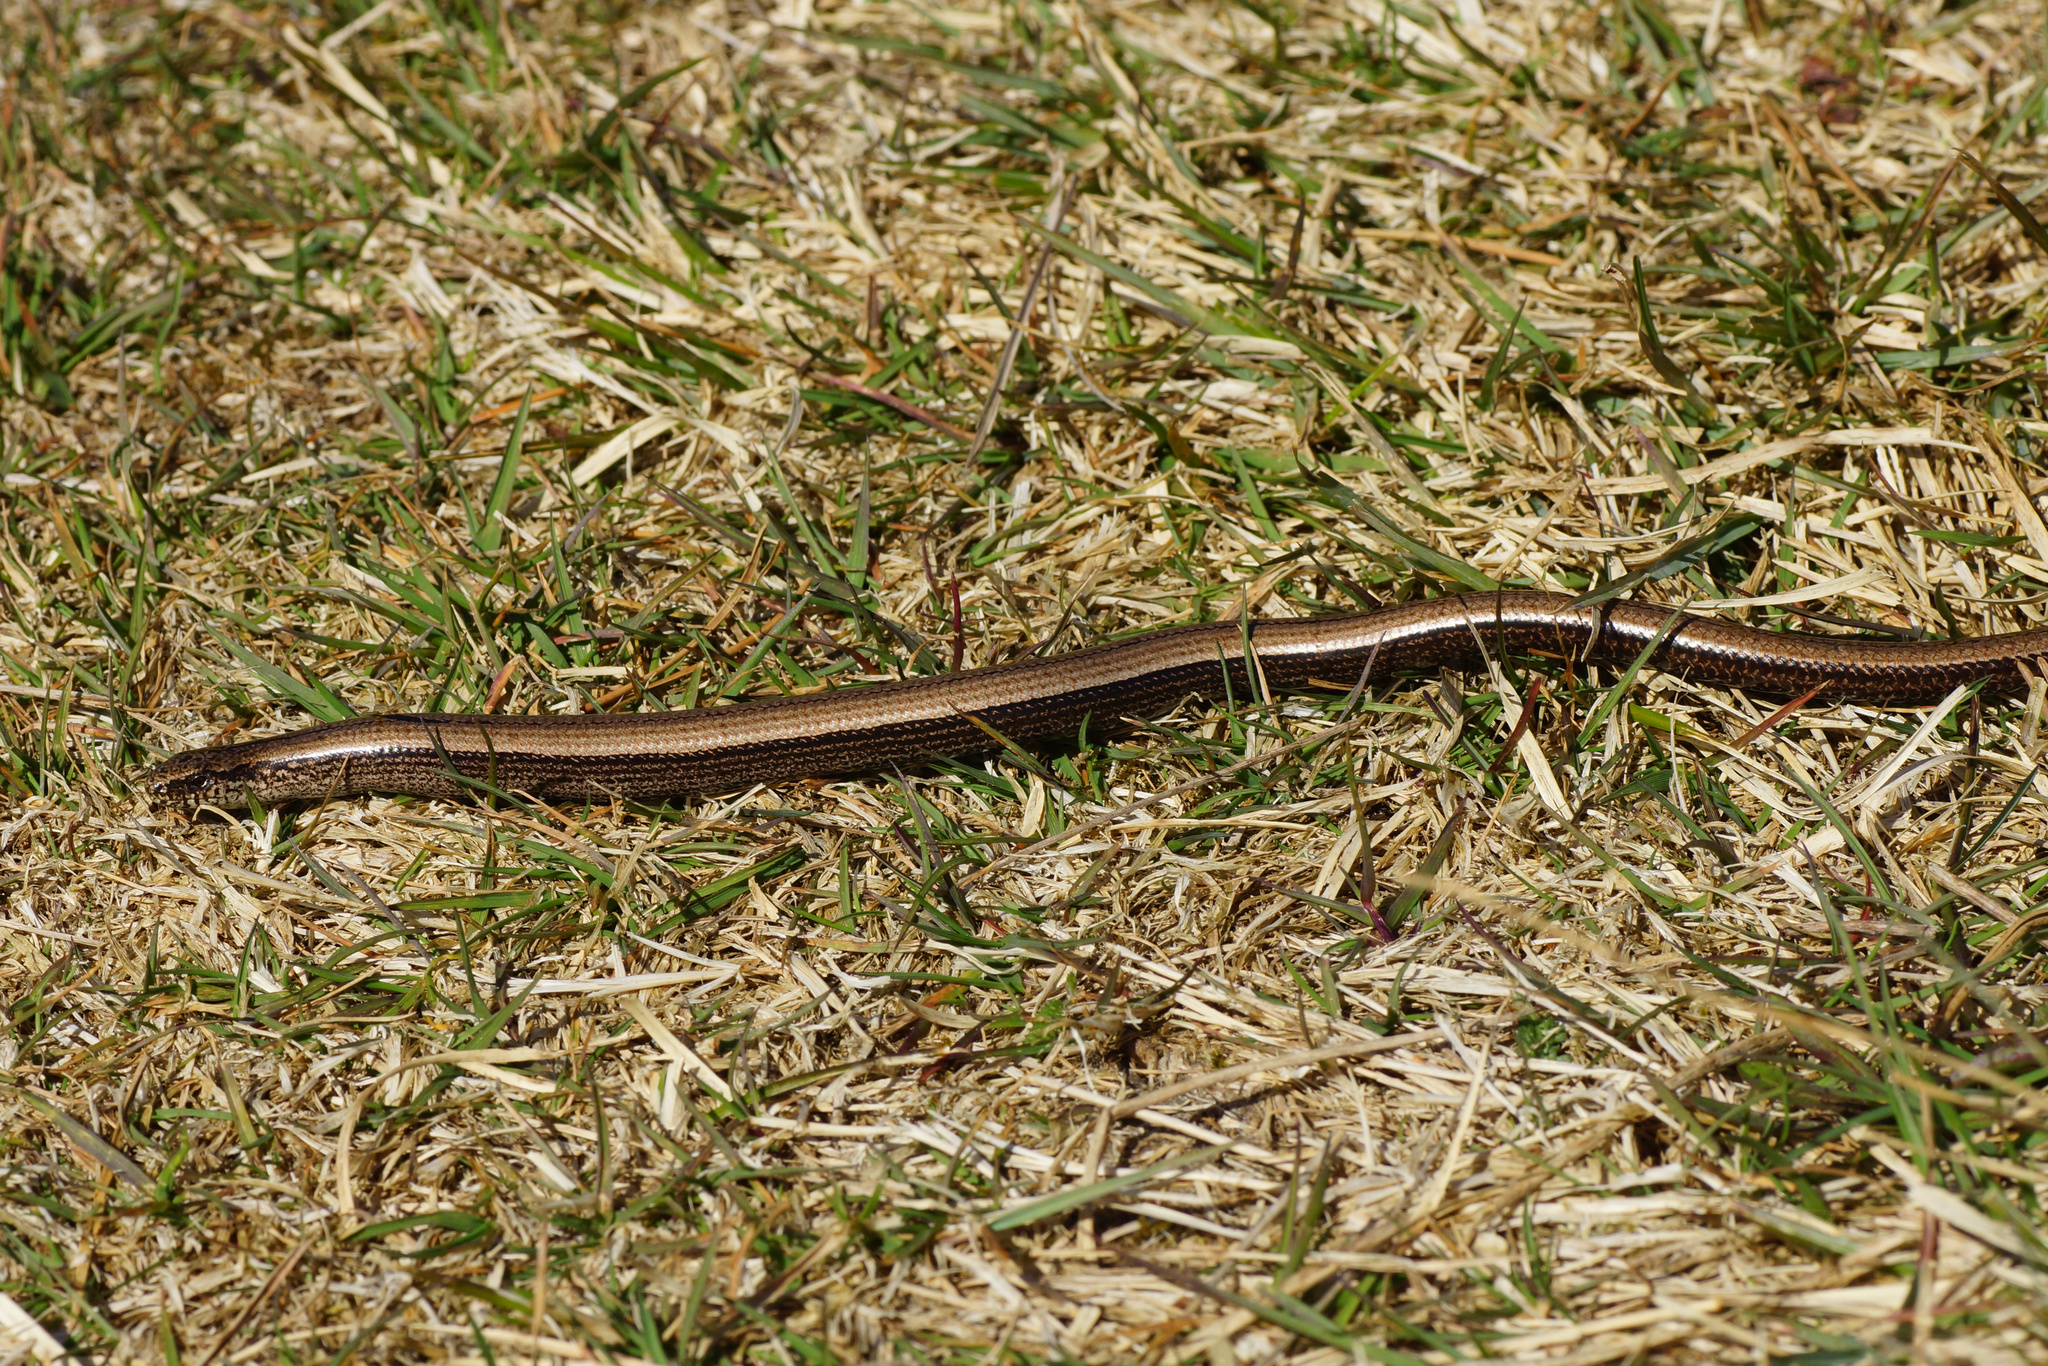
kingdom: Animalia
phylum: Chordata
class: Squamata
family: Anguidae
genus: Anguis
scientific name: Anguis fragilis
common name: Slow worm
